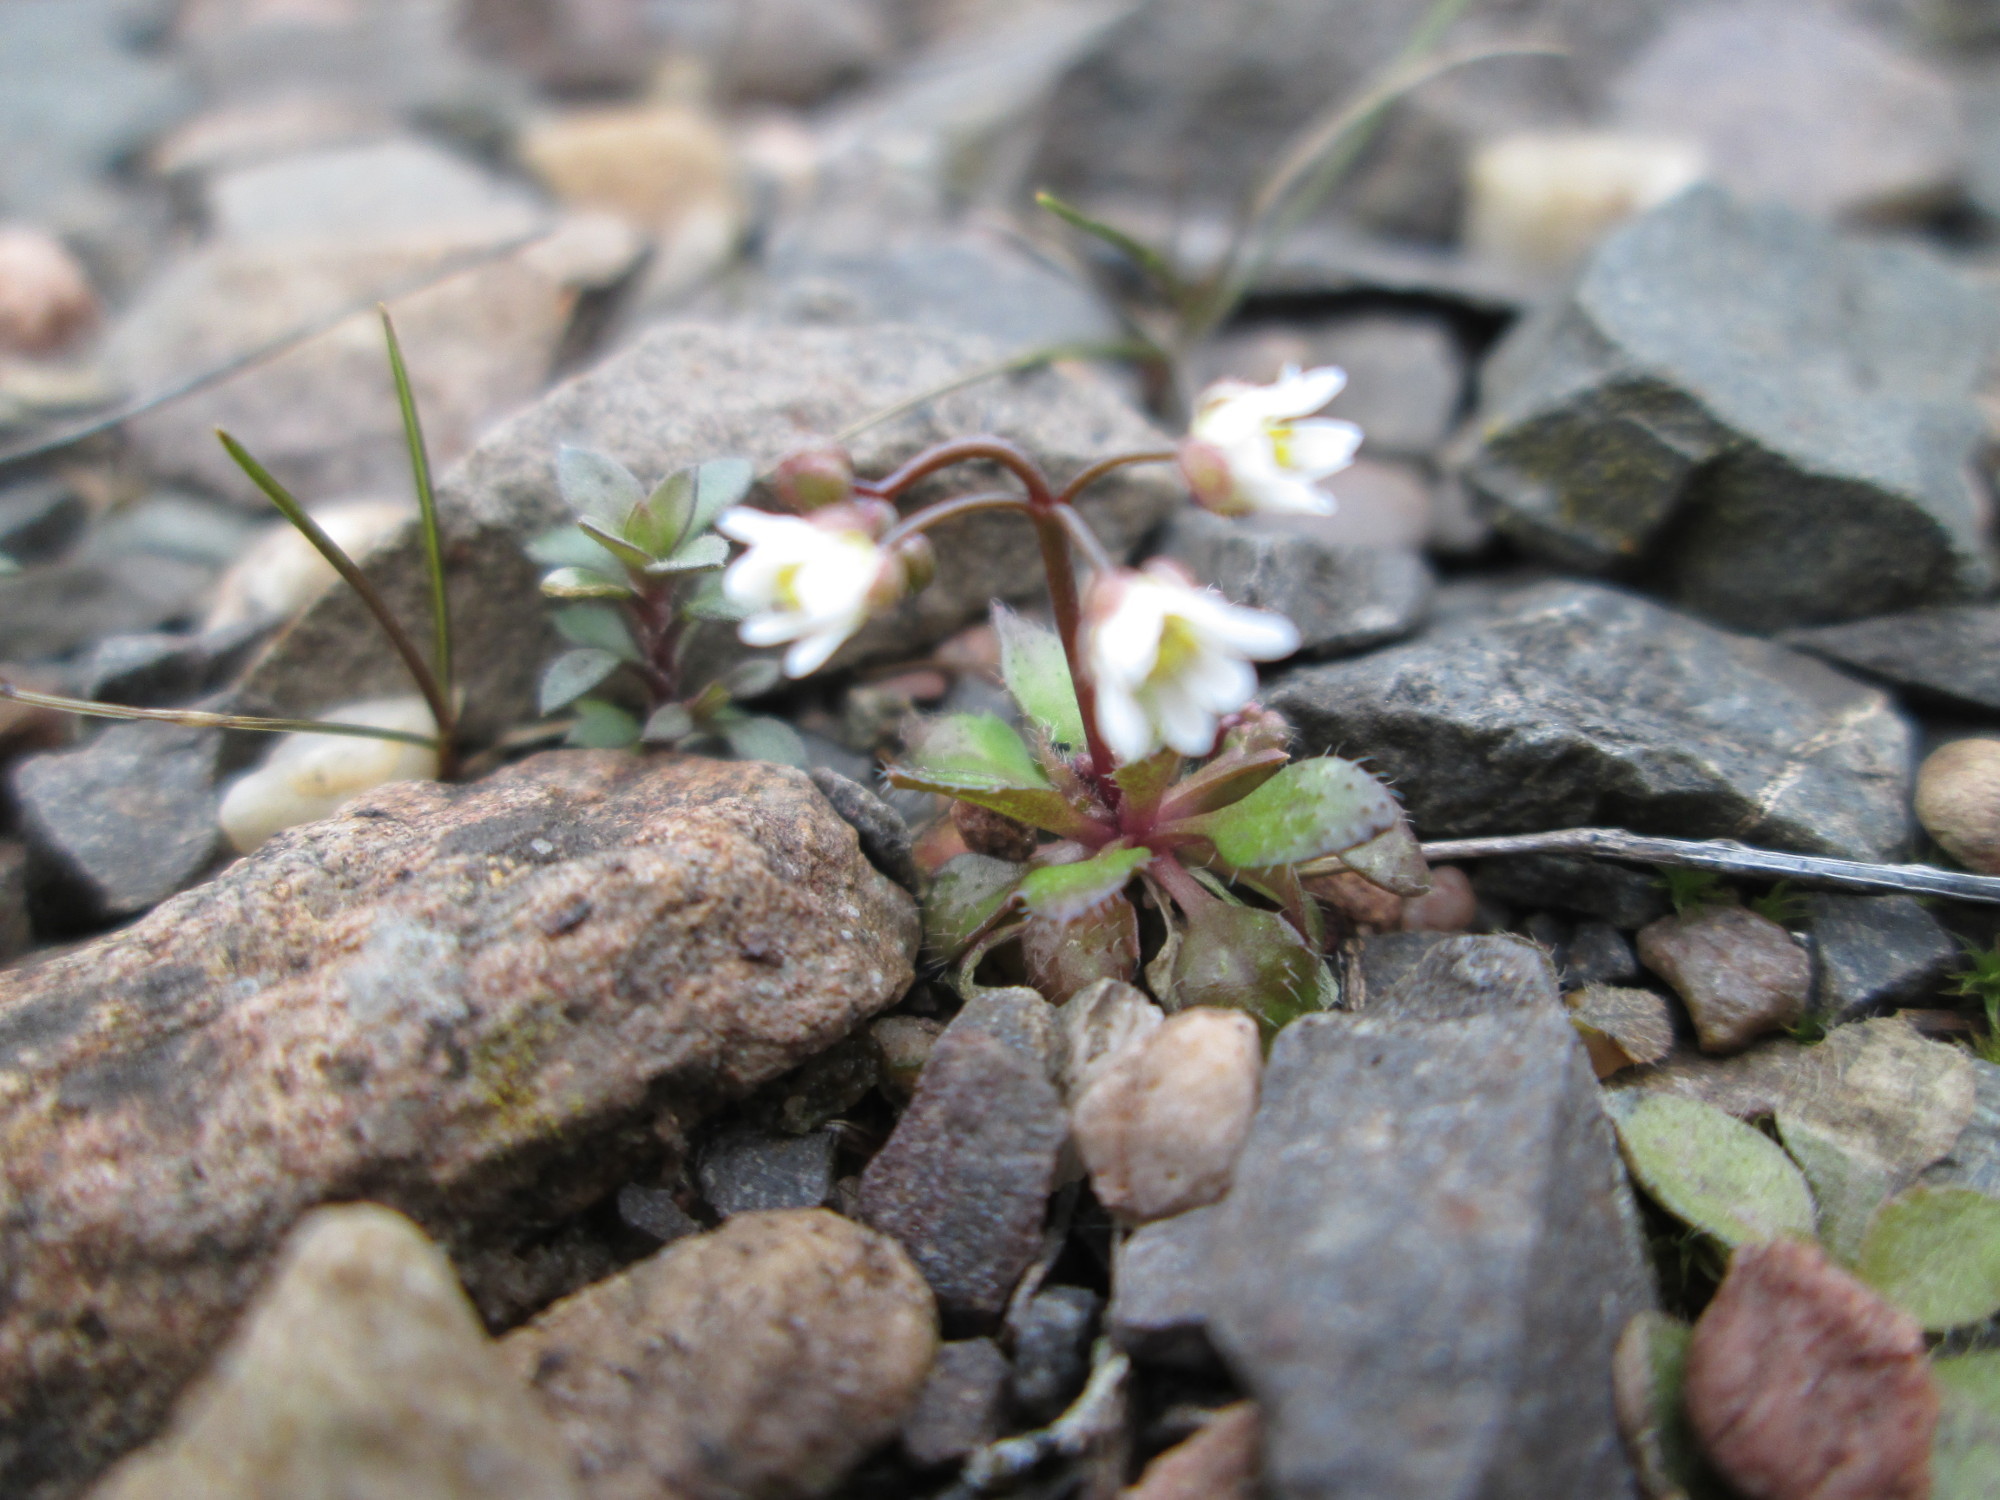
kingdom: Plantae
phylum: Tracheophyta
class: Magnoliopsida
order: Brassicales
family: Brassicaceae
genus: Draba
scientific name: Draba verna
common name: Spring draba
